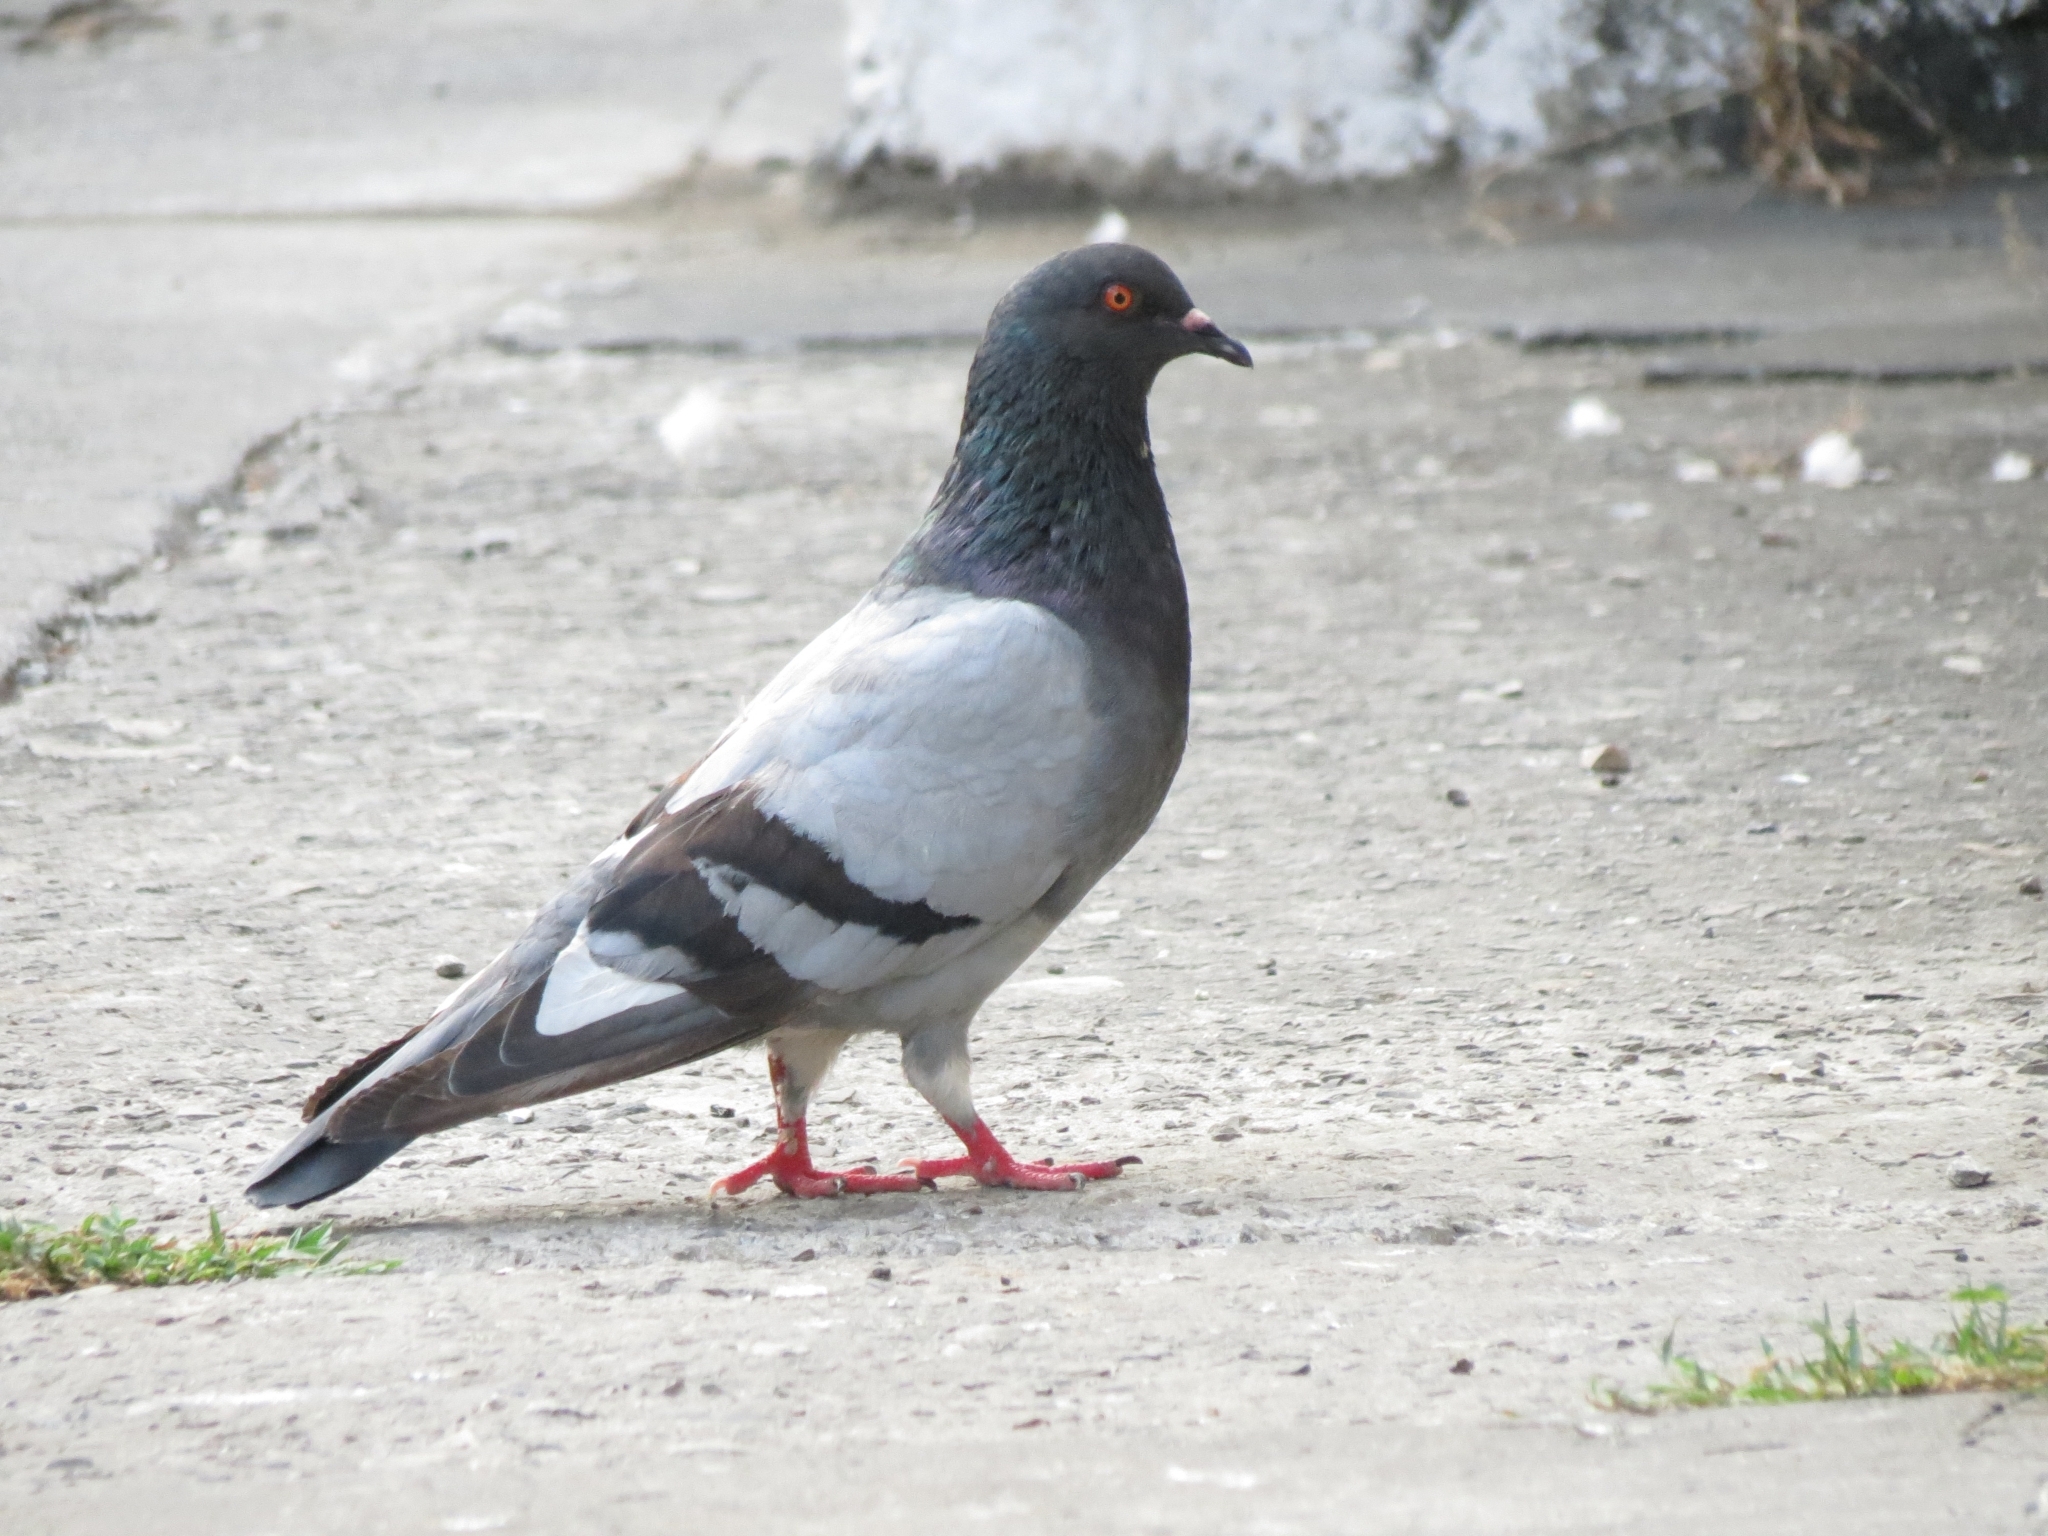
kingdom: Animalia
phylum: Chordata
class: Aves
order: Columbiformes
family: Columbidae
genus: Columba
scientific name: Columba livia
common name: Rock pigeon
